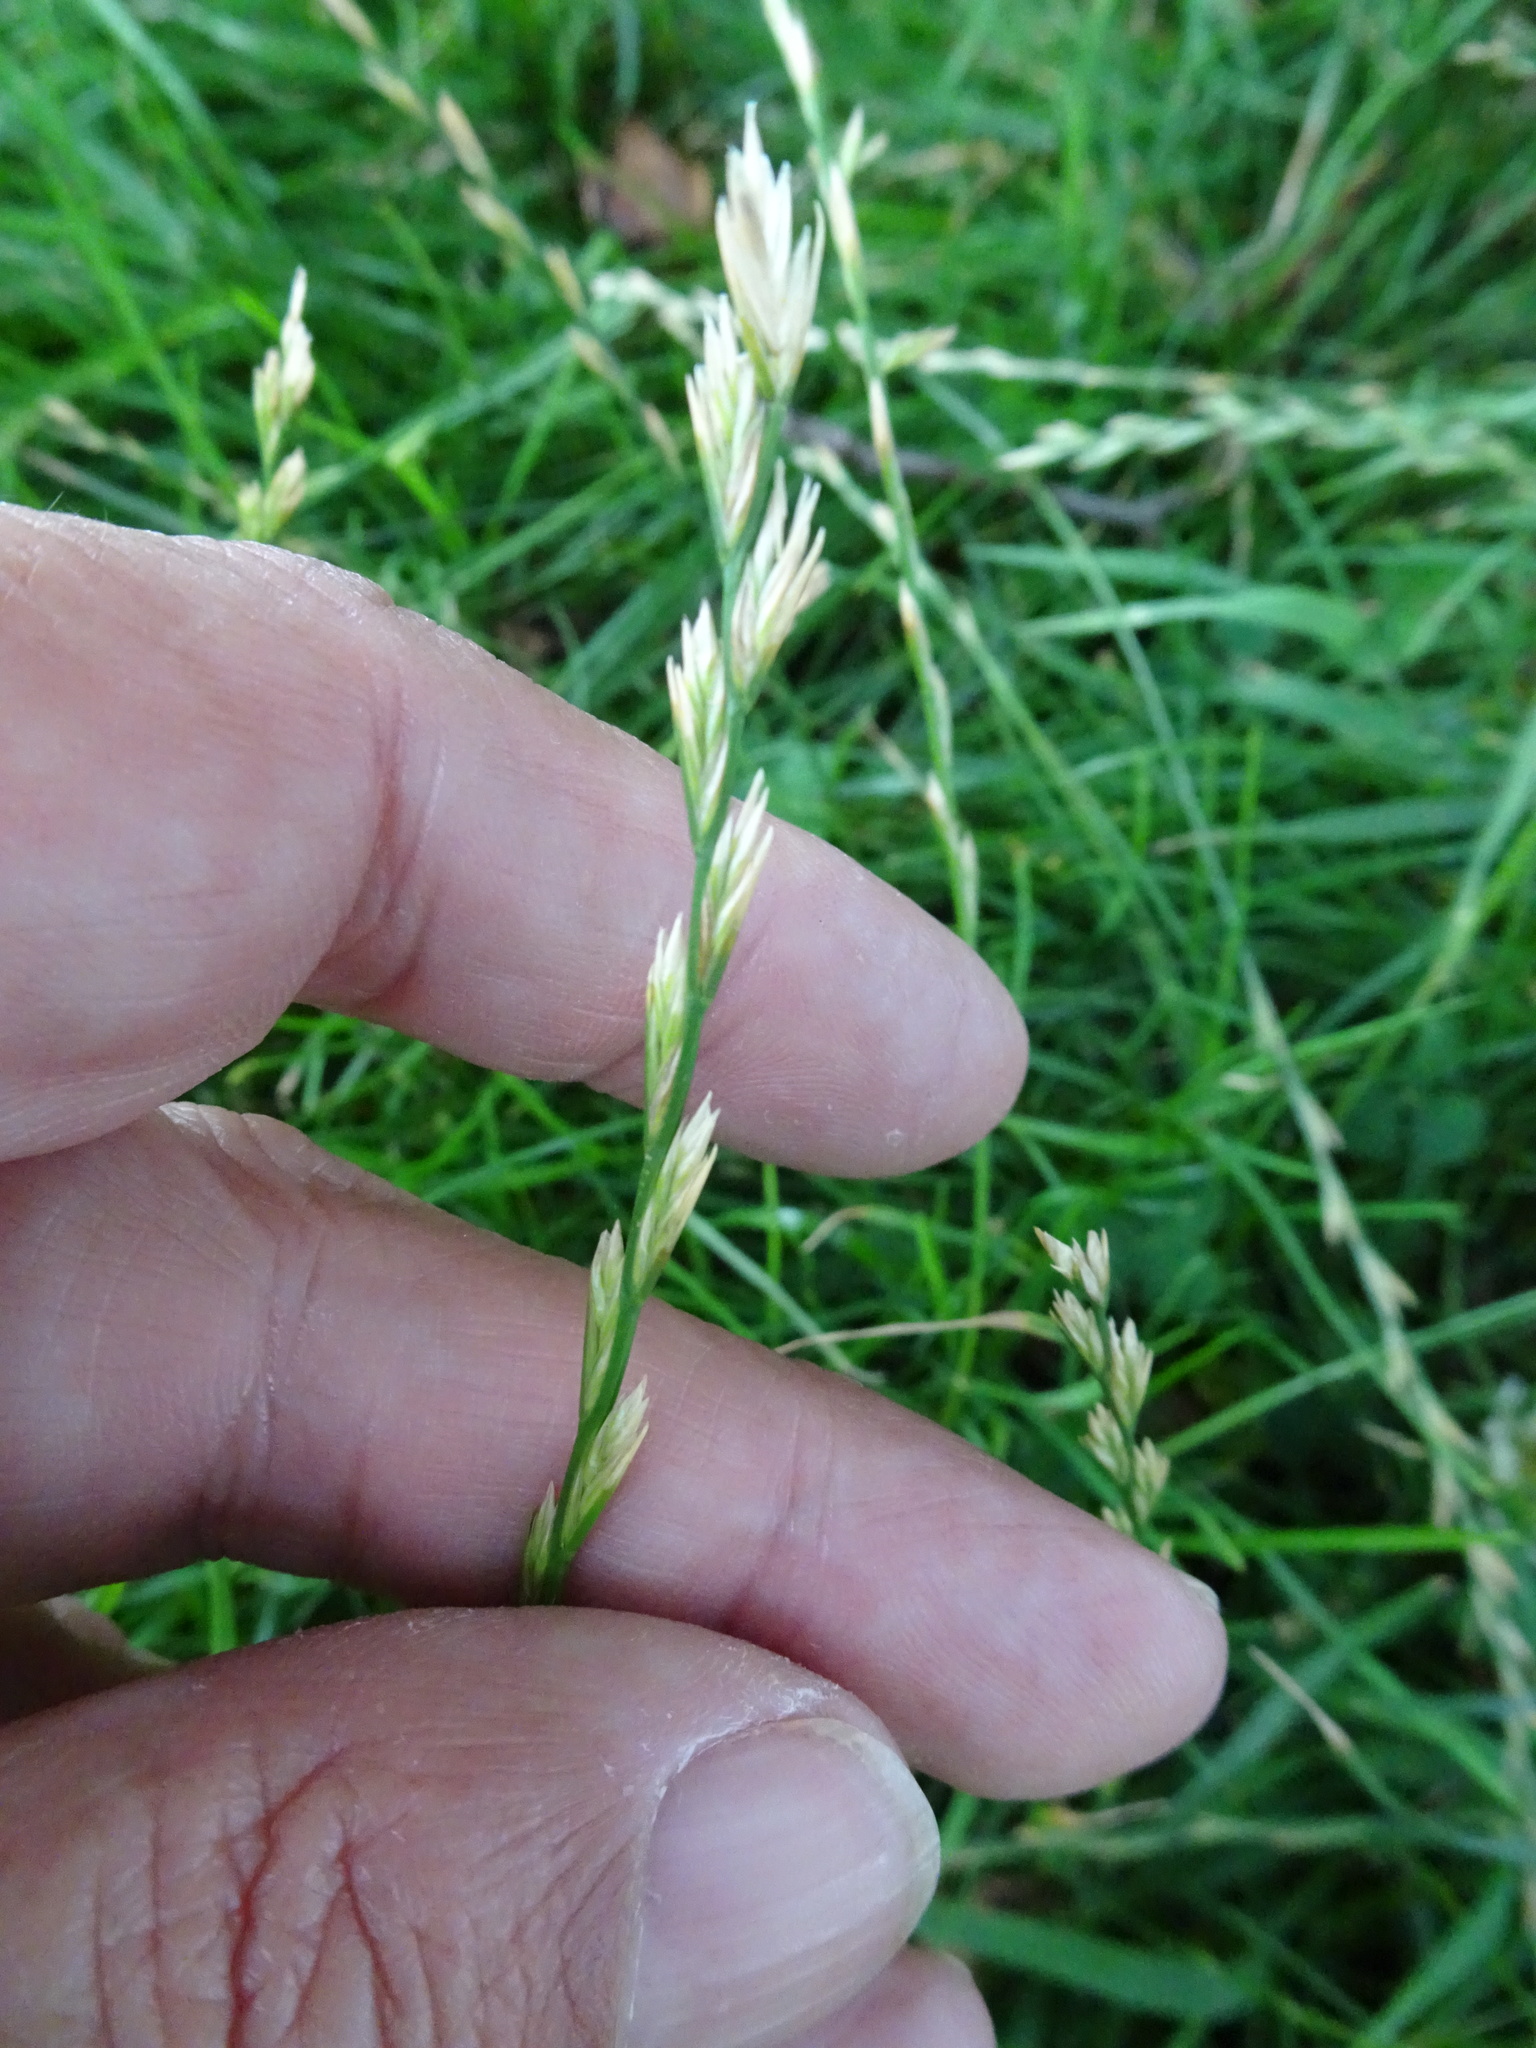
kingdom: Plantae
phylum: Tracheophyta
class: Liliopsida
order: Poales
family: Poaceae
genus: Lolium
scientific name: Lolium perenne
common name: Perennial ryegrass
